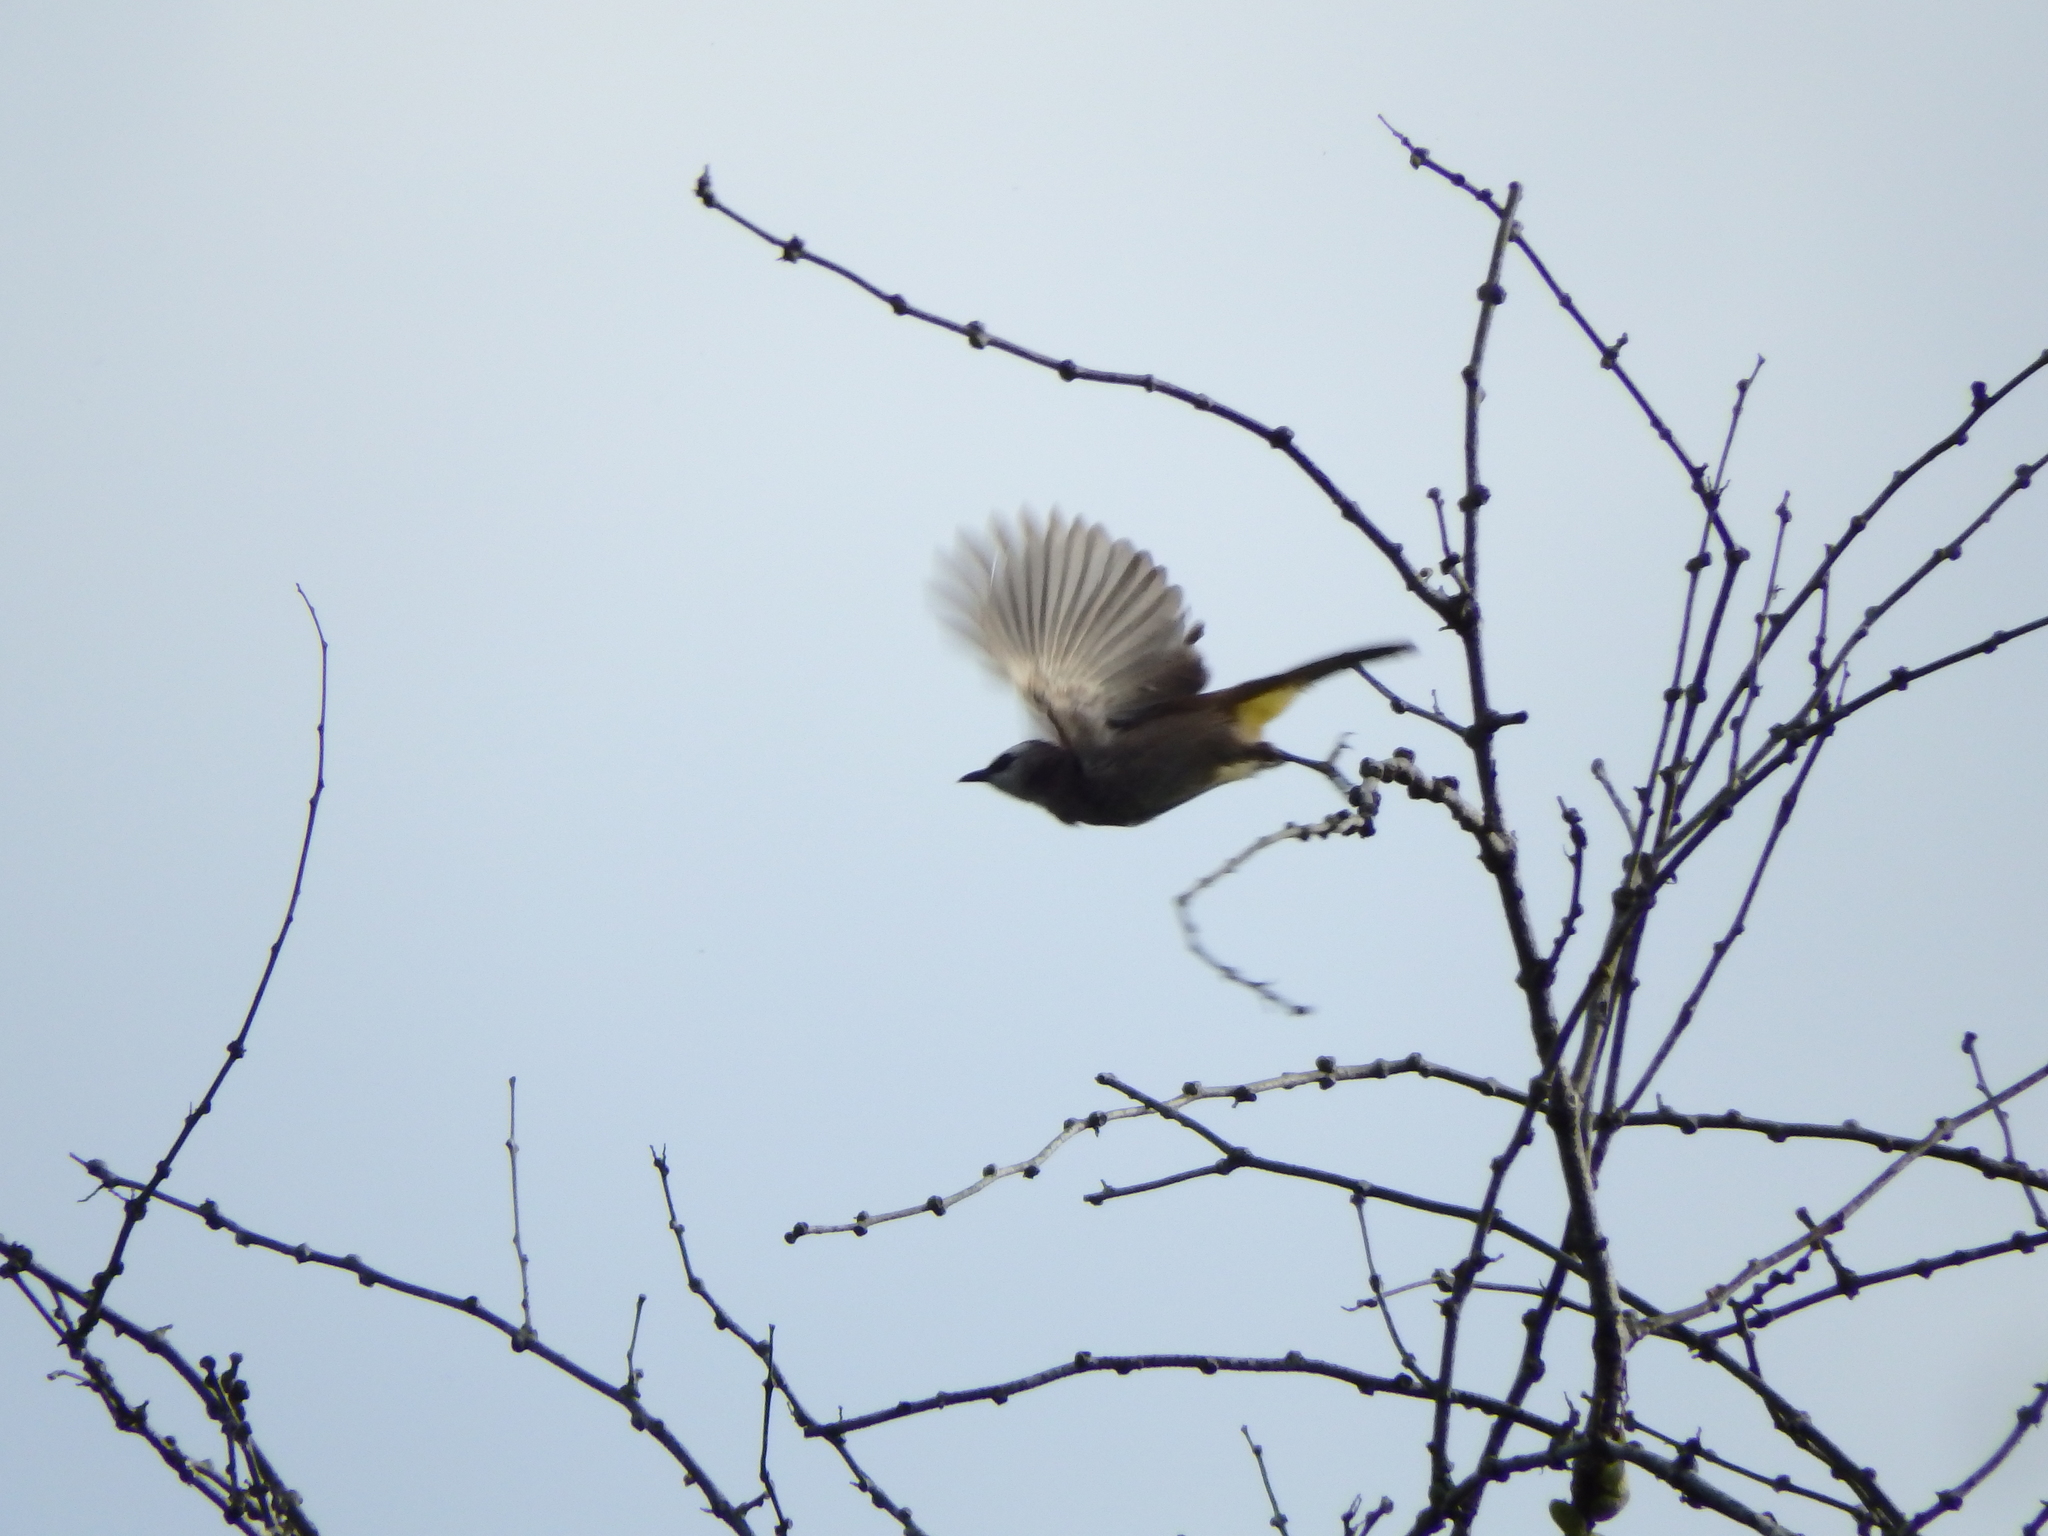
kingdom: Animalia
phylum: Chordata
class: Aves
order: Passeriformes
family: Pycnonotidae
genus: Pycnonotus
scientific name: Pycnonotus goiavier
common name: Yellow-vented bulbul
